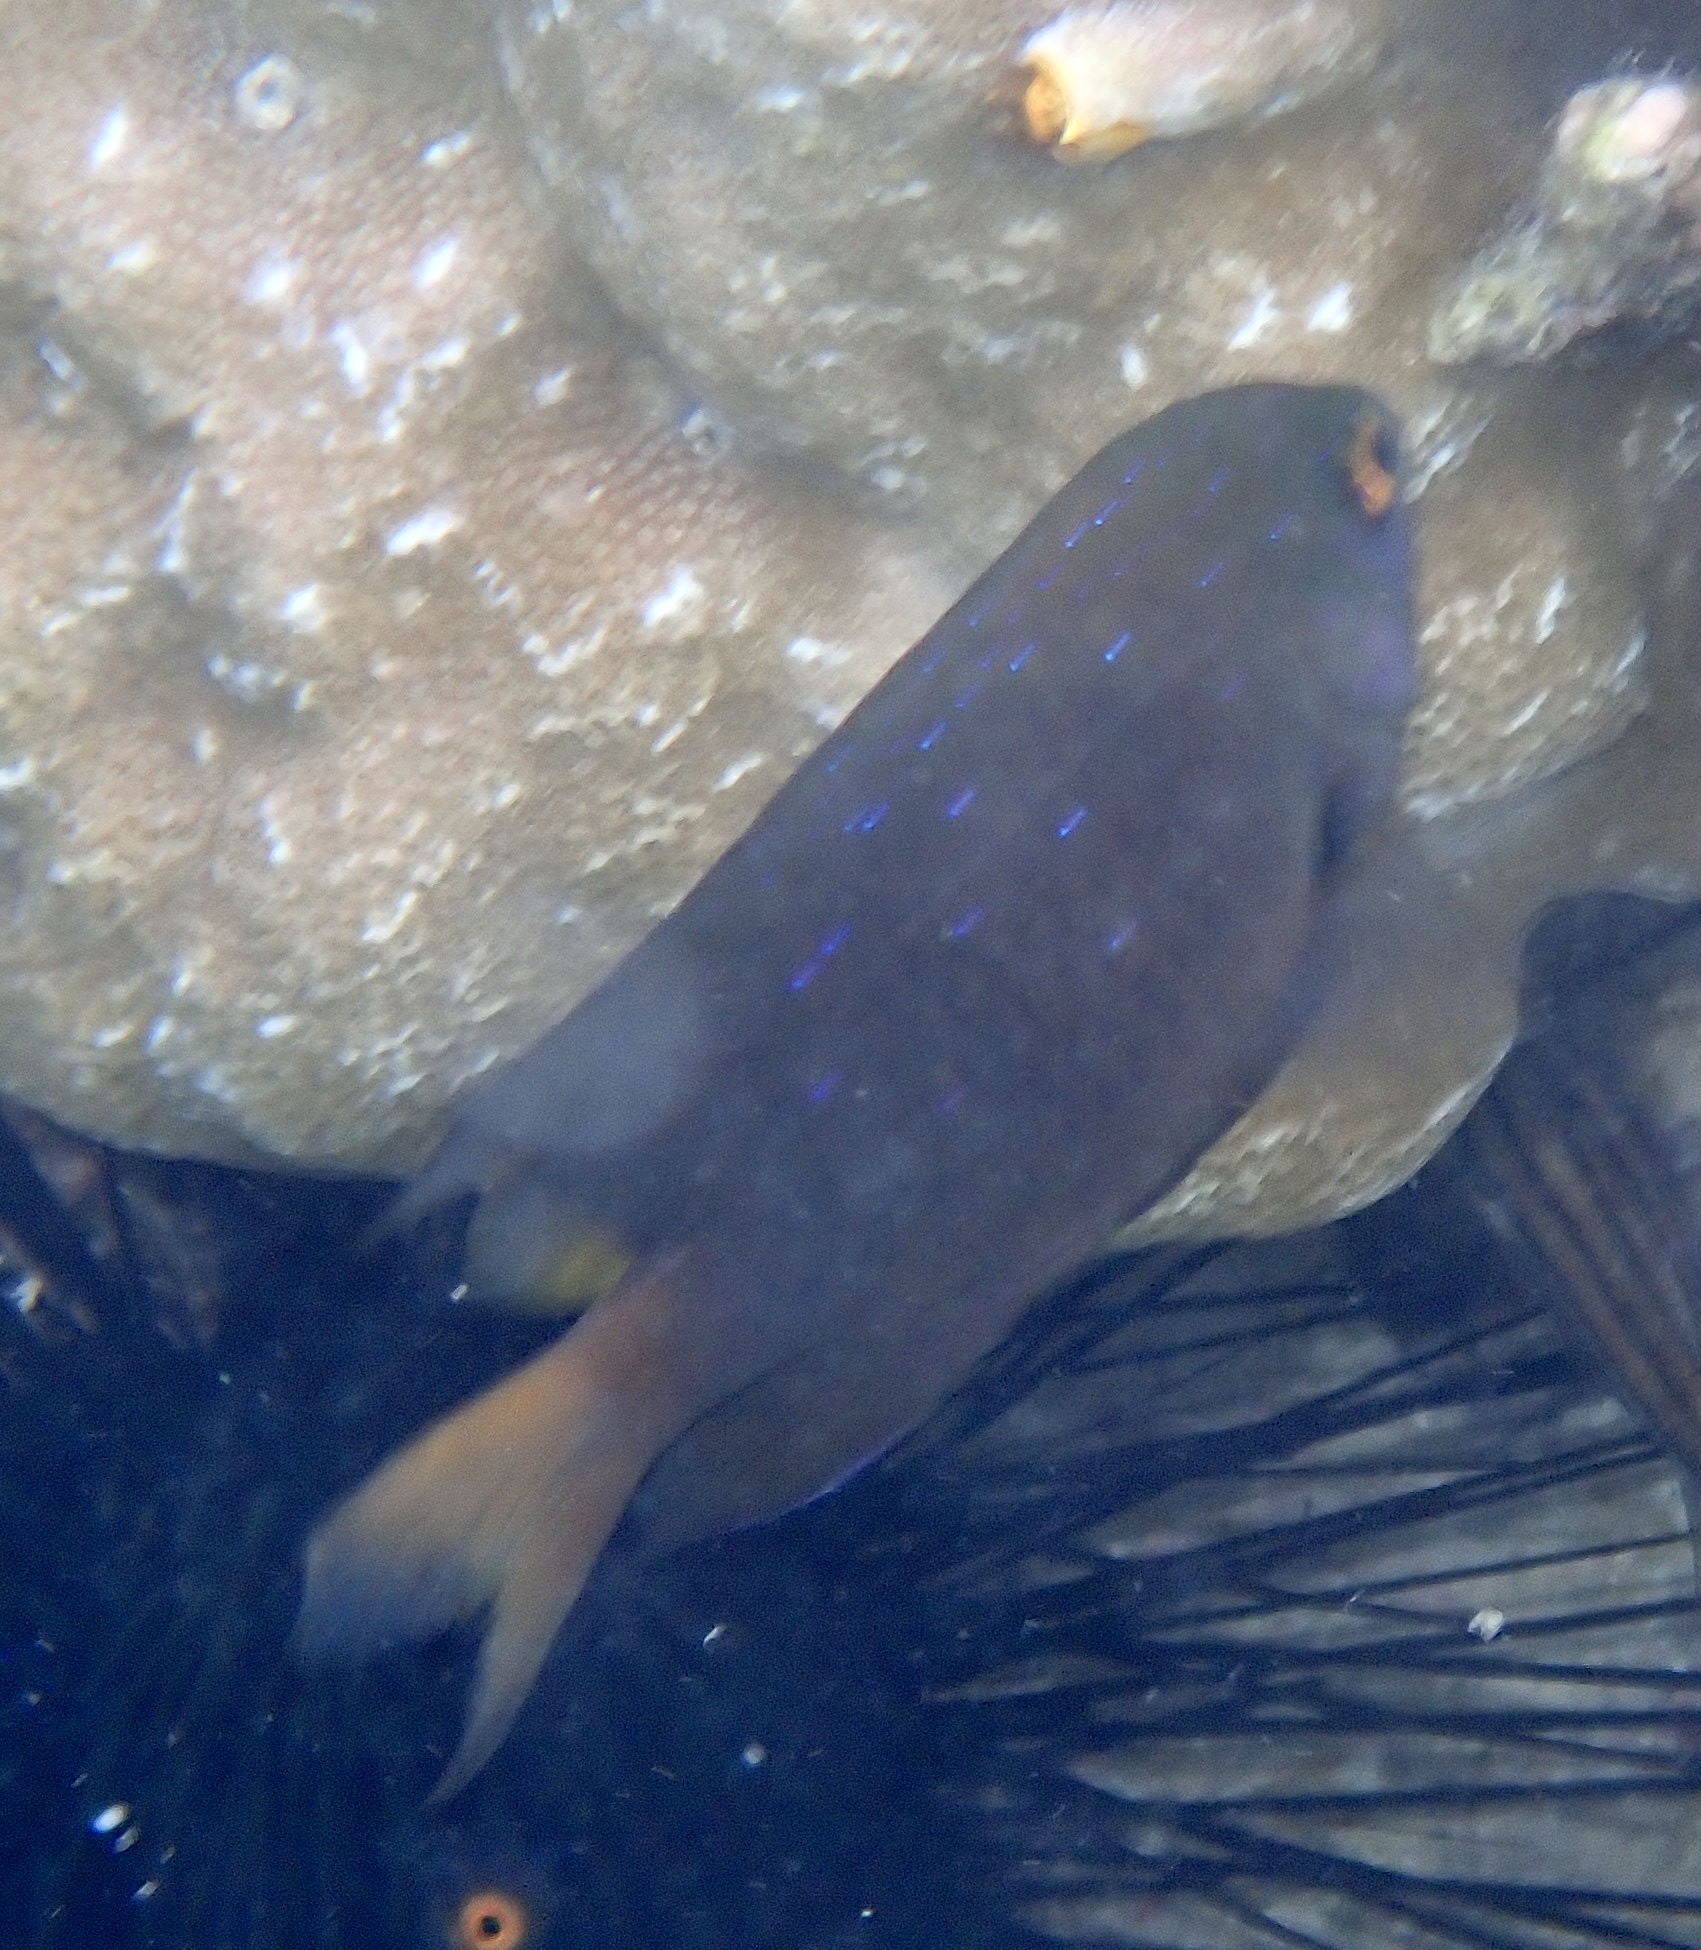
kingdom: Animalia
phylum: Chordata
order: Perciformes
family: Pomacentridae
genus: Plectroglyphidodon
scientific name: Plectroglyphidodon lacrymatus
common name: Jewel damsel
